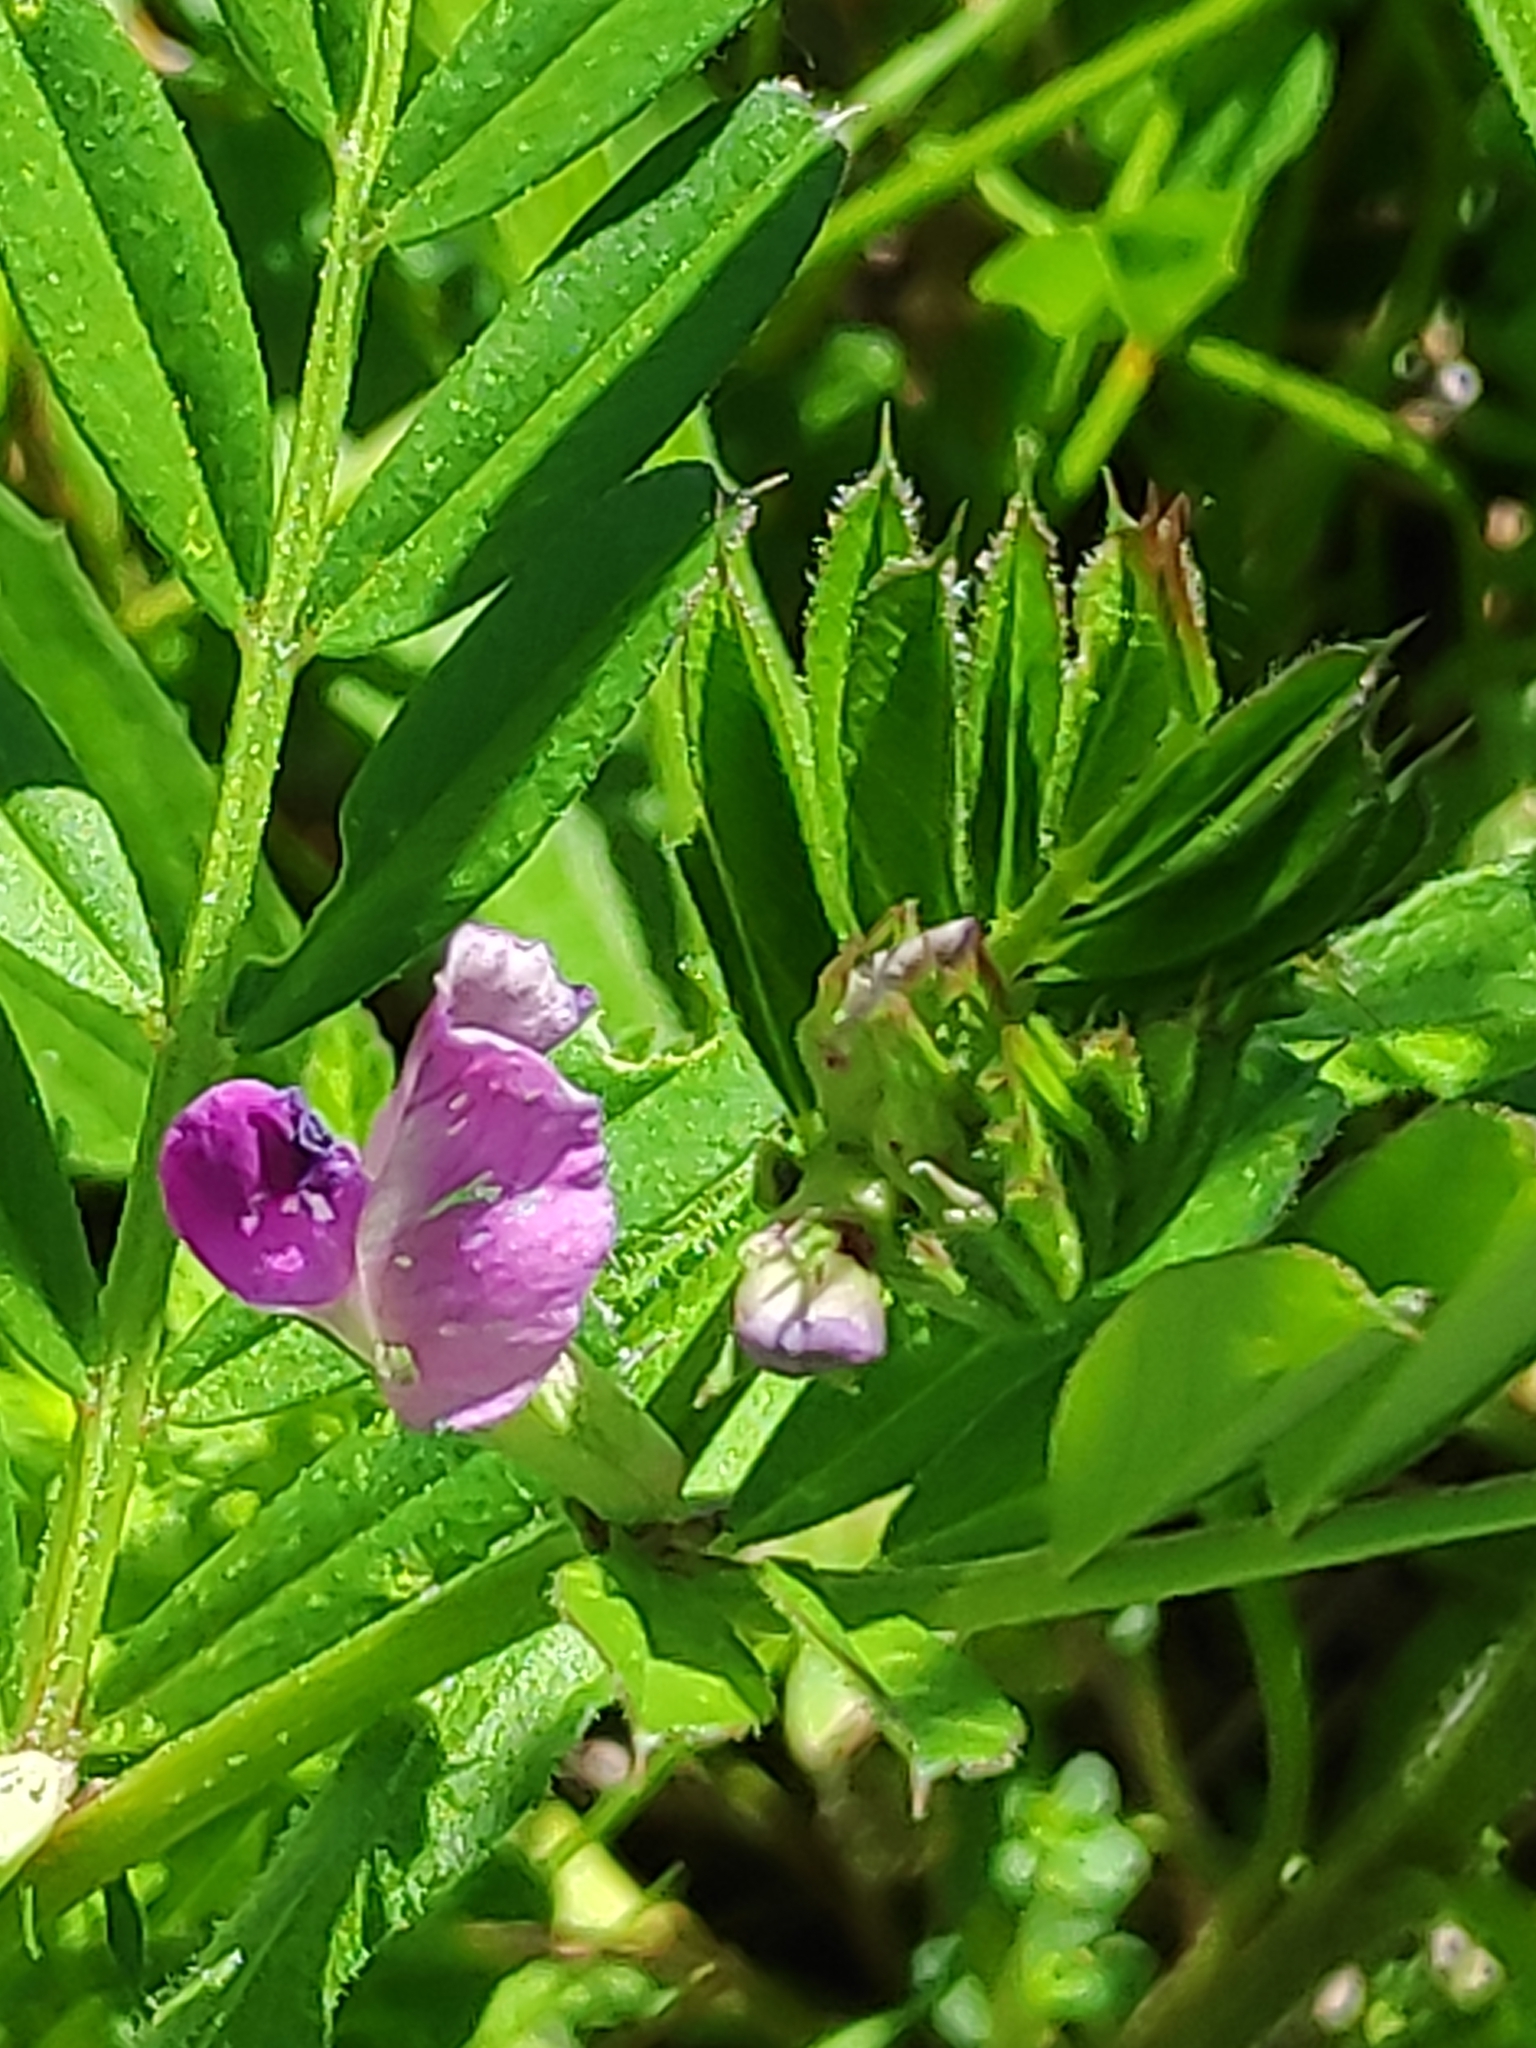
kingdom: Plantae
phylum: Tracheophyta
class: Magnoliopsida
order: Fabales
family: Fabaceae
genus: Vicia
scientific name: Vicia sativa
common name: Garden vetch
